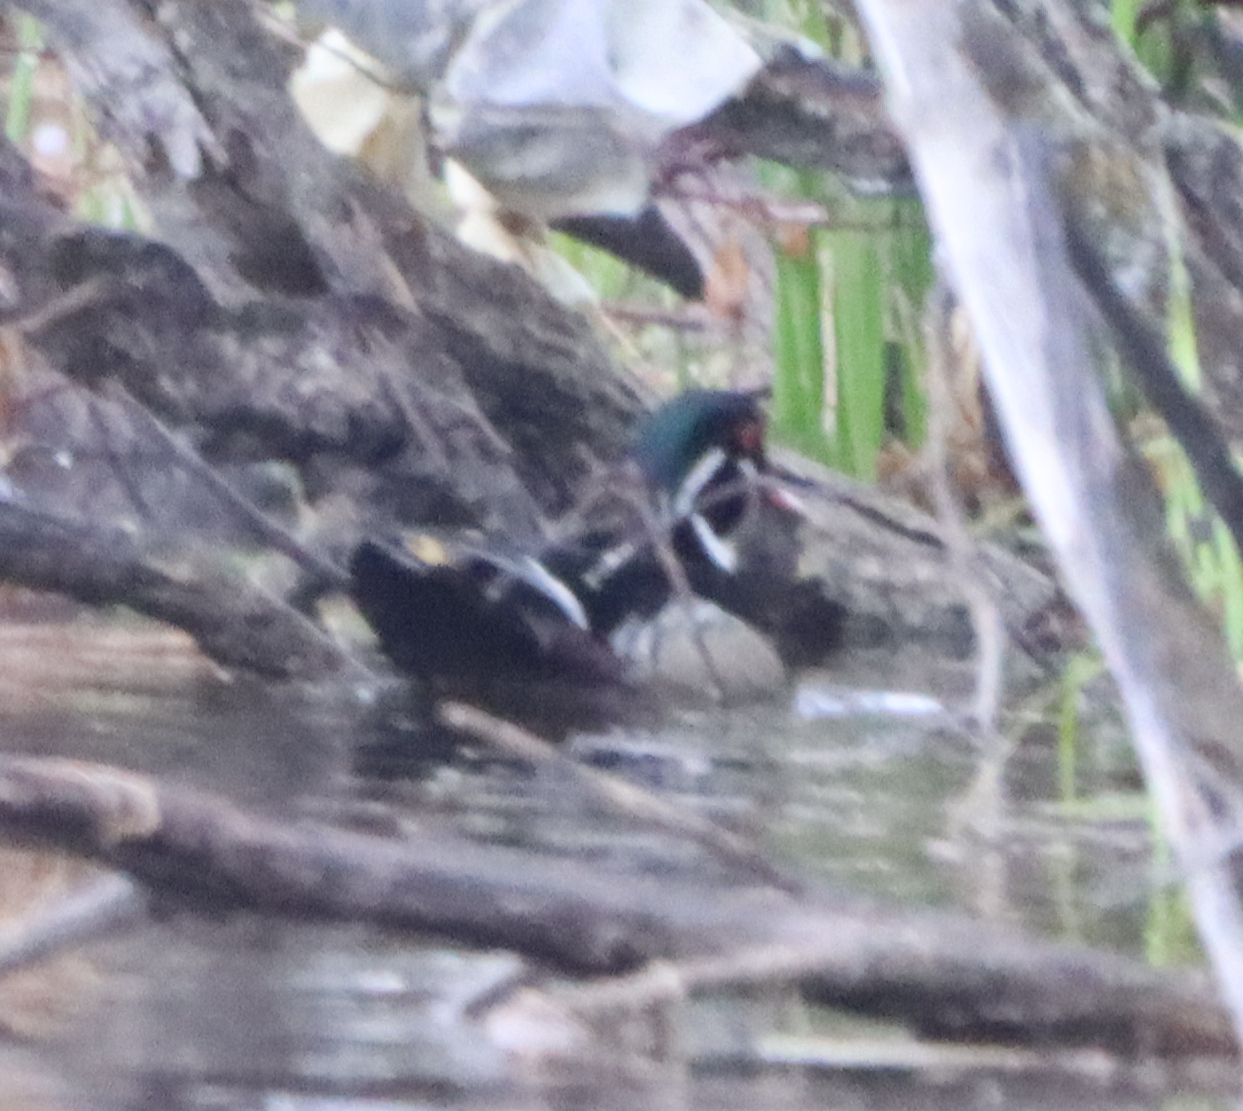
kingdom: Animalia
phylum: Chordata
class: Aves
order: Anseriformes
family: Anatidae
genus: Aix
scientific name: Aix sponsa
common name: Wood duck
